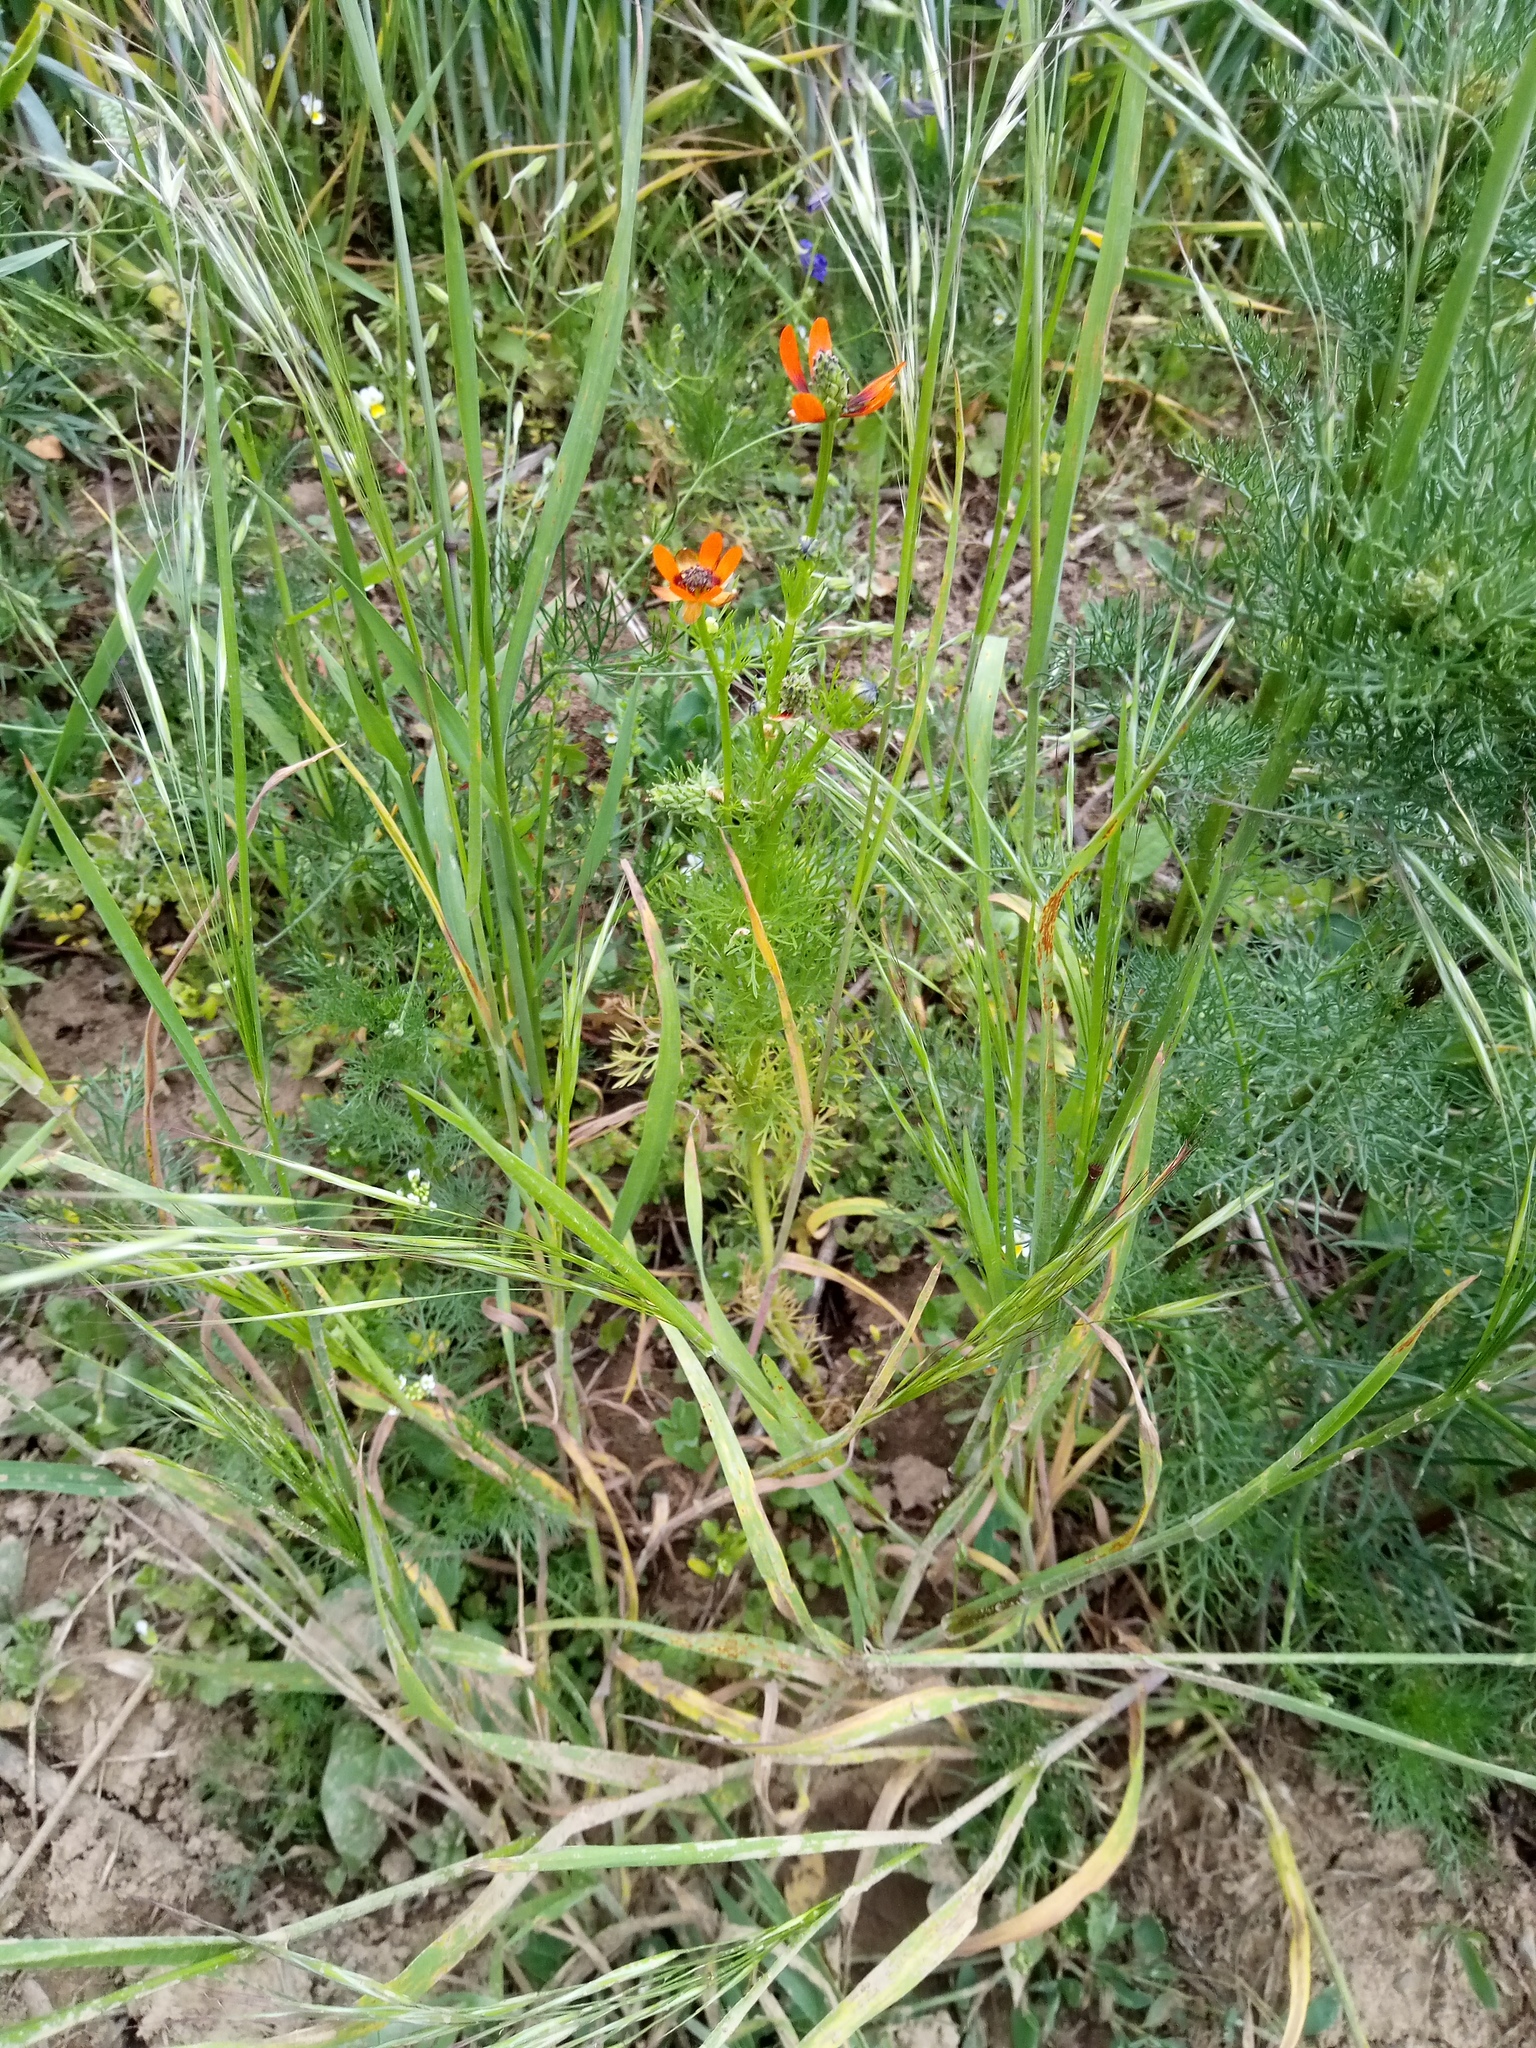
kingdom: Plantae
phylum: Tracheophyta
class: Magnoliopsida
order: Ranunculales
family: Ranunculaceae
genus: Adonis
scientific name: Adonis aestivalis
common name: Summer pheasant's-eye
